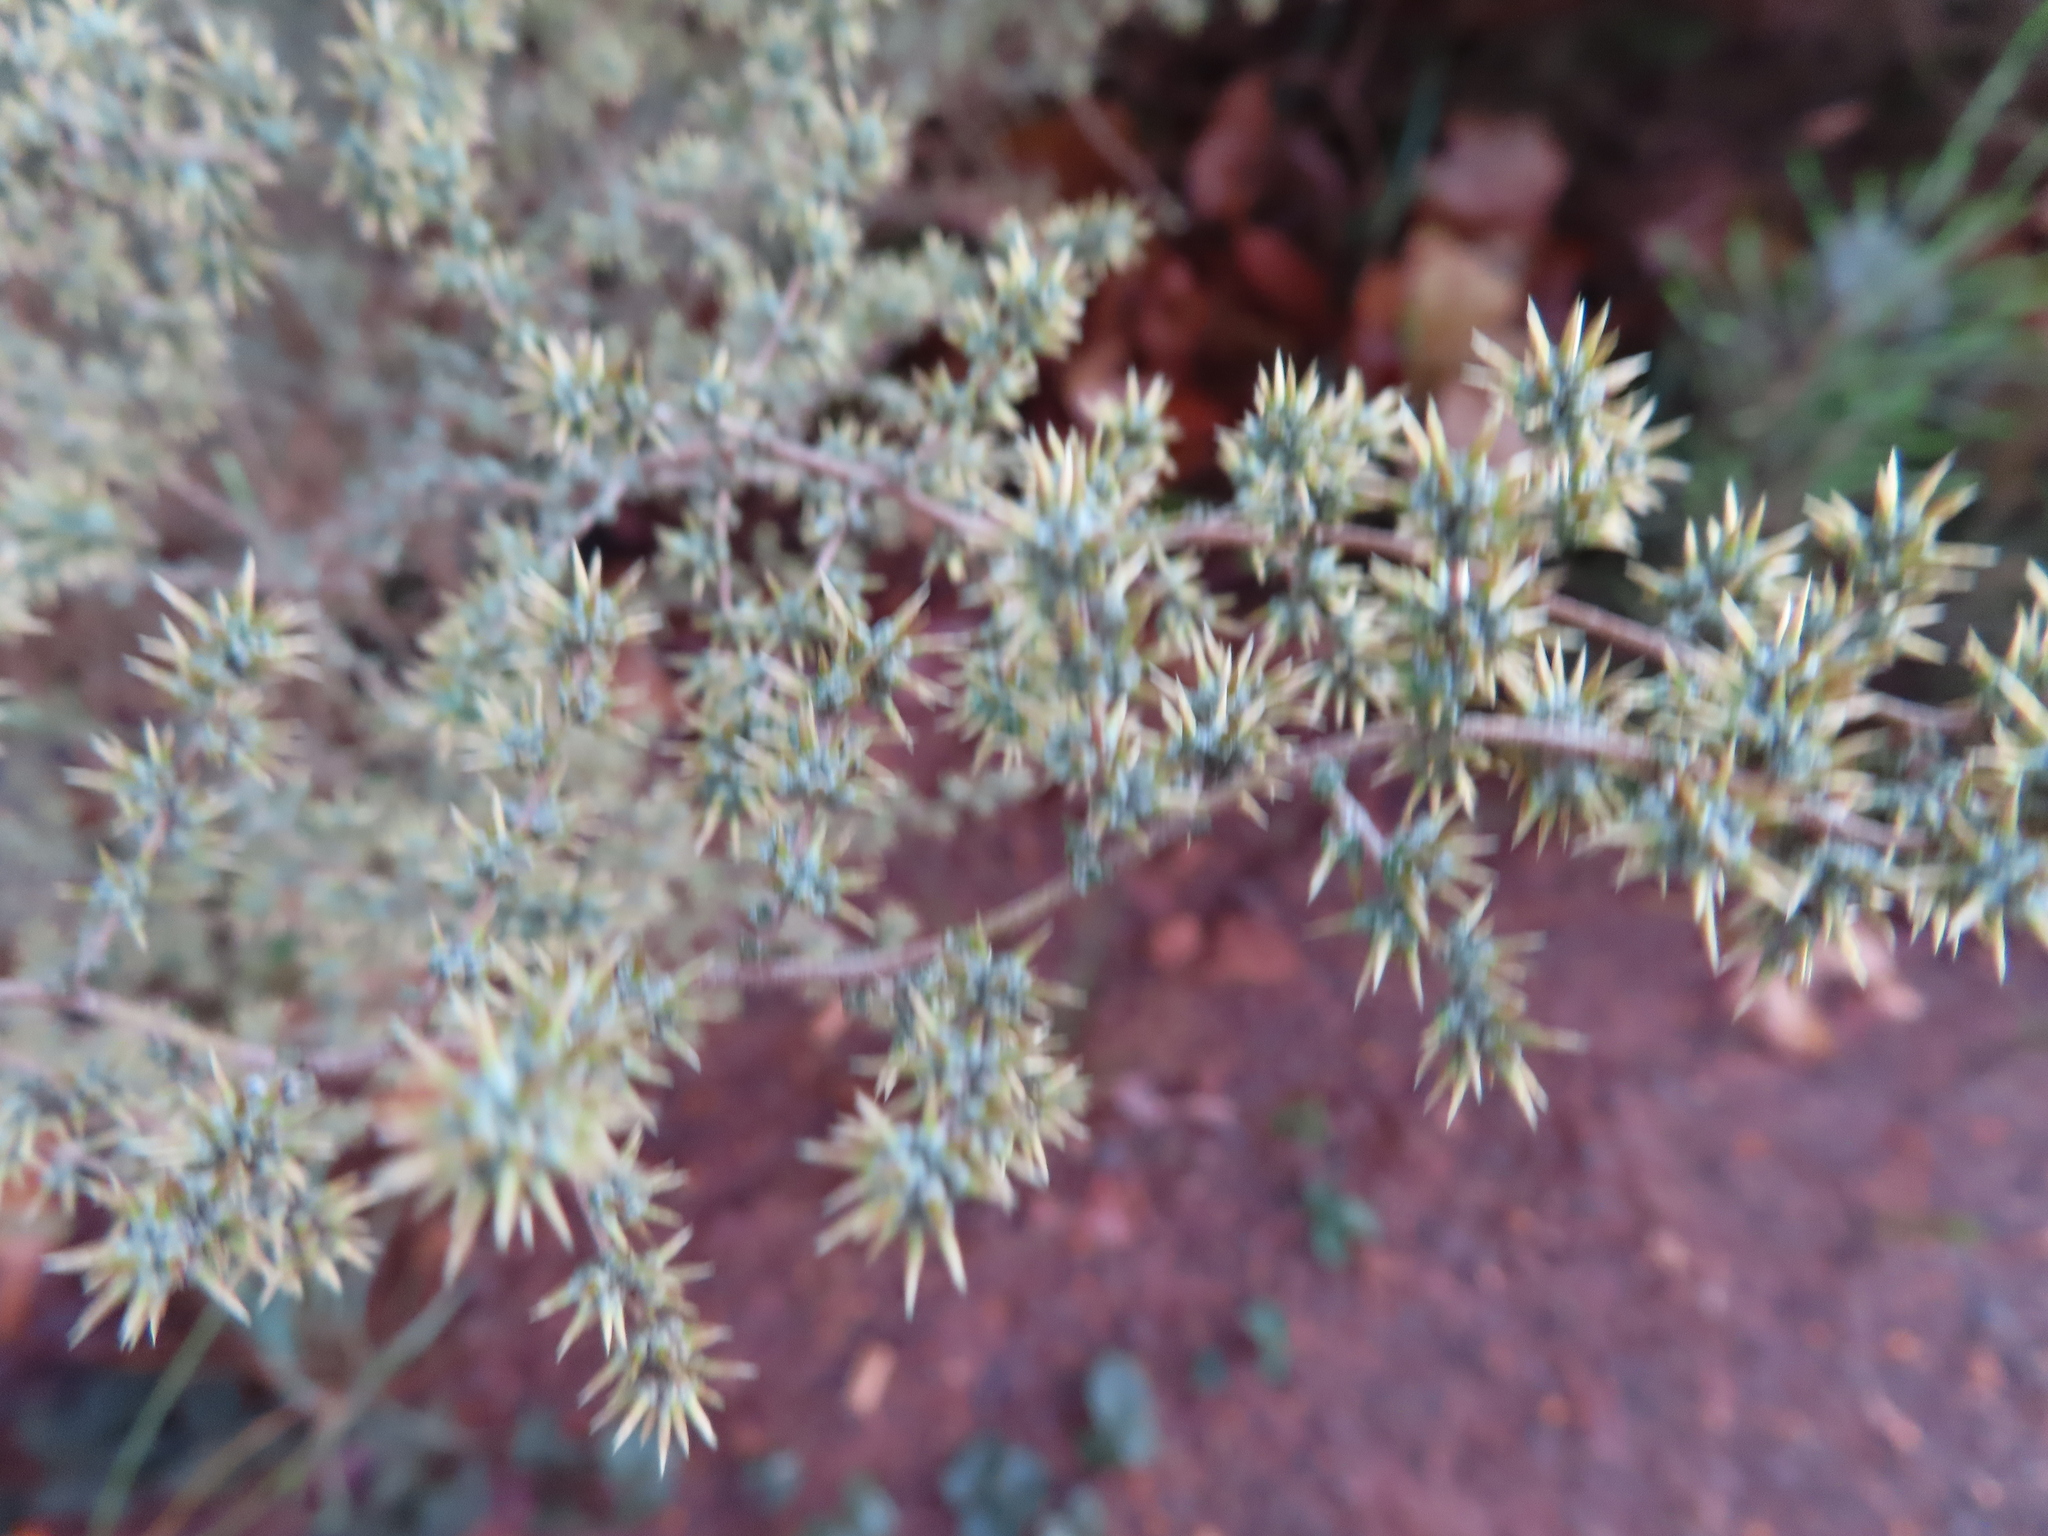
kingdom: Plantae
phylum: Tracheophyta
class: Magnoliopsida
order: Asterales
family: Asteraceae
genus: Seriphium
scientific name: Seriphium plumosum
